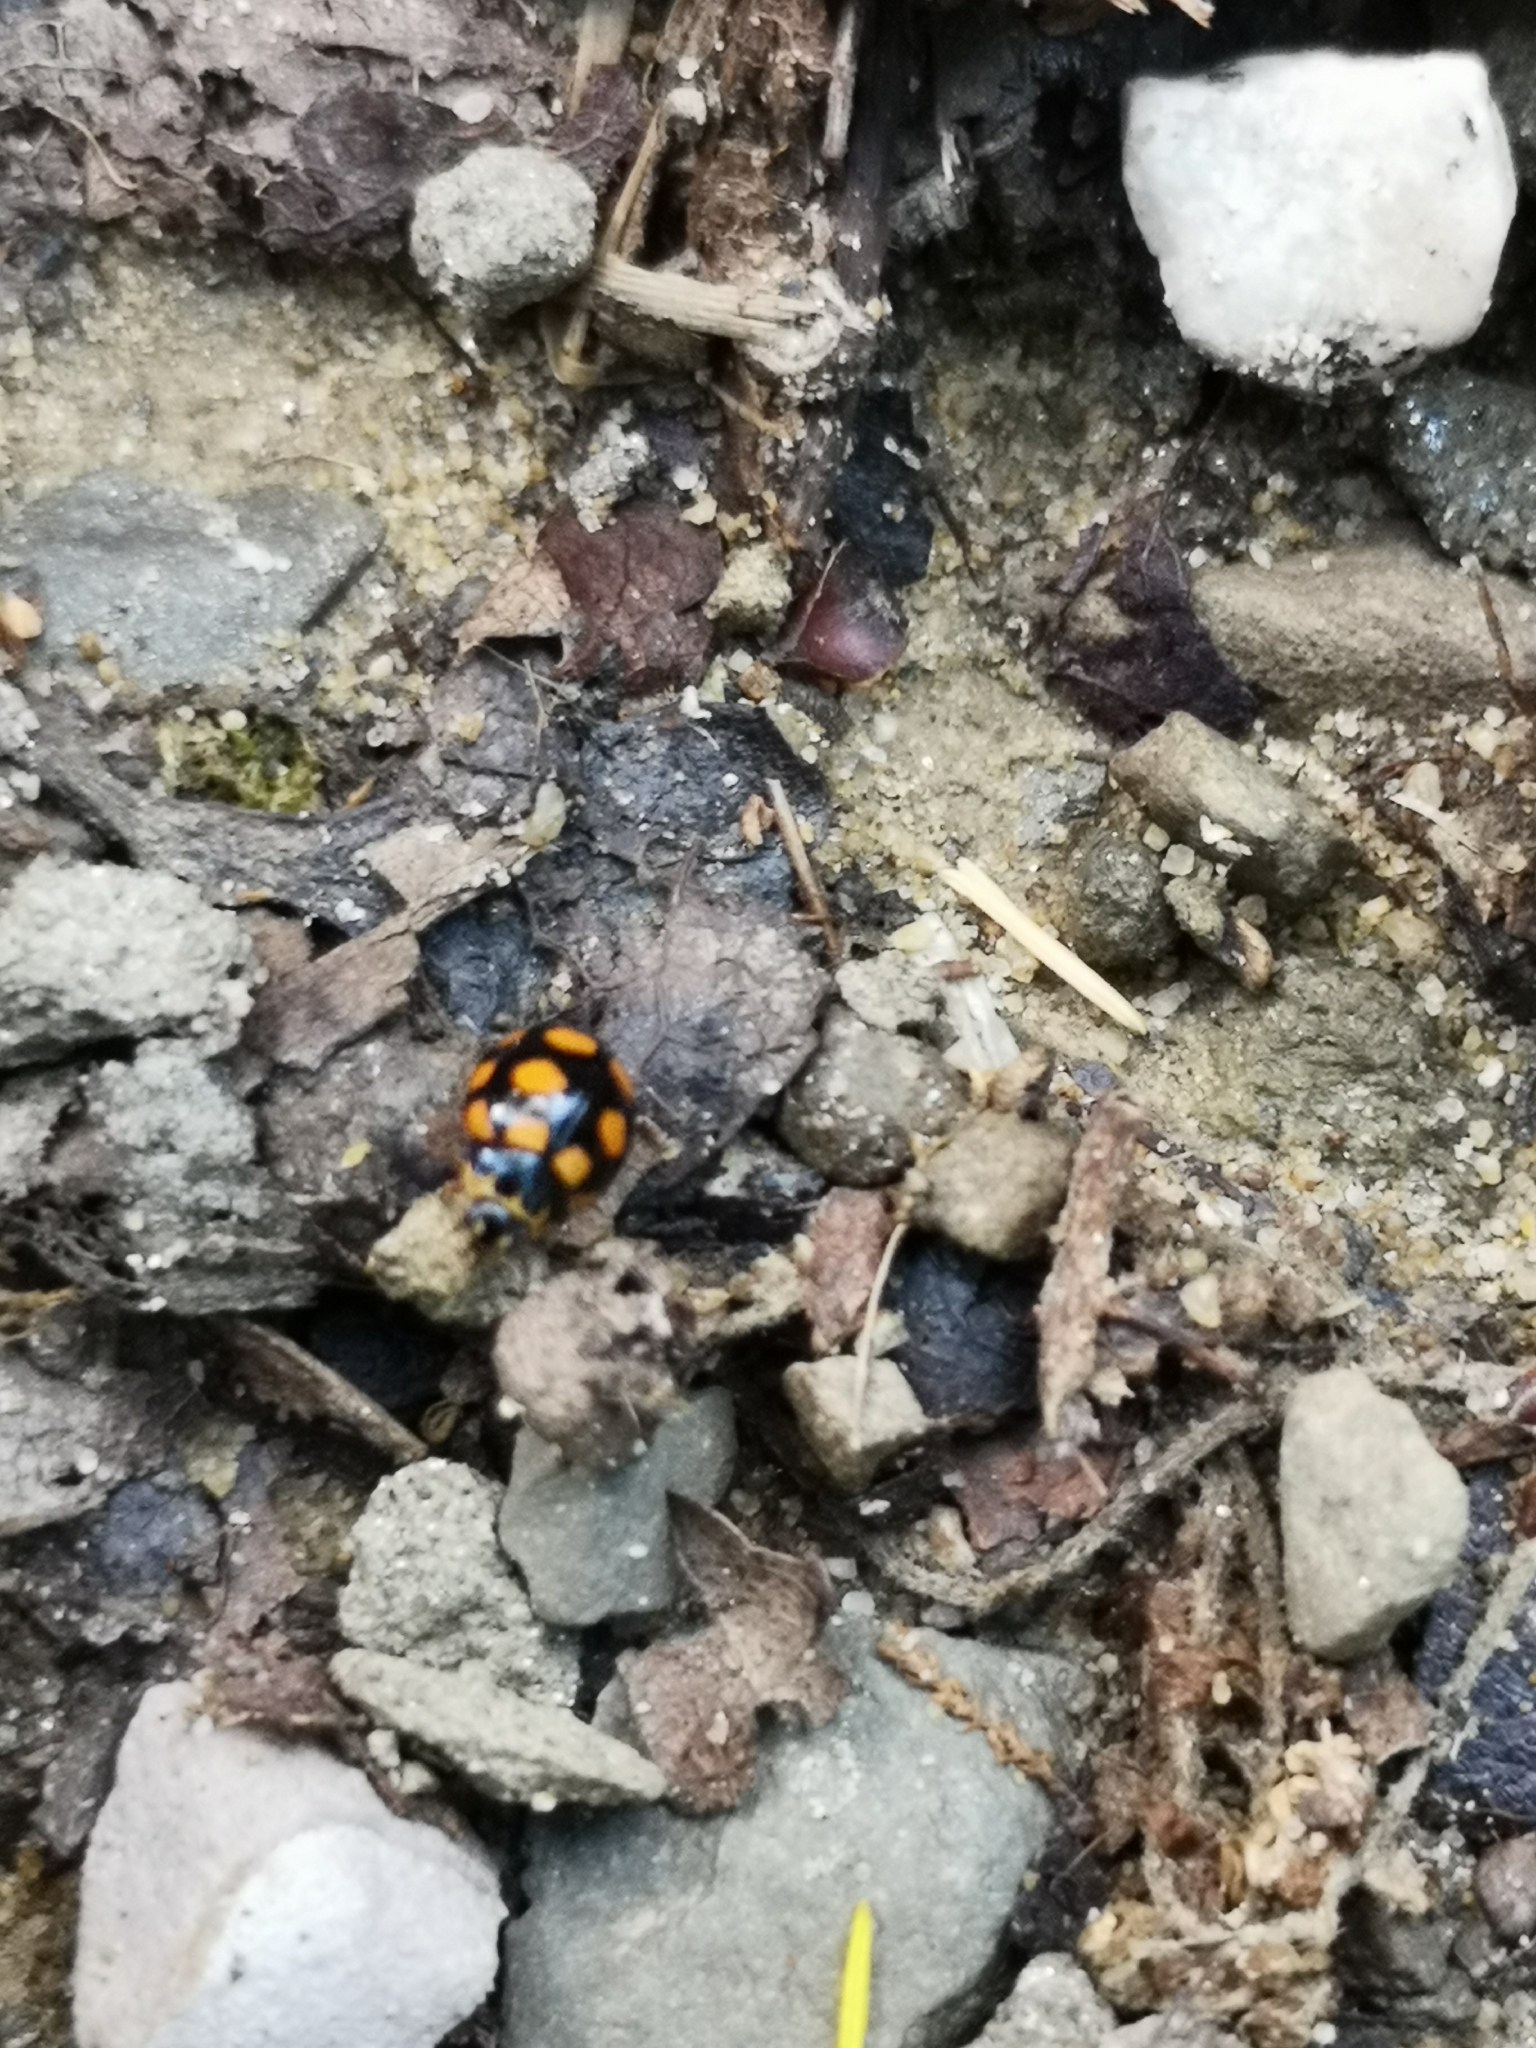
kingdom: Animalia
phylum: Arthropoda
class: Insecta
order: Coleoptera
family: Coccinellidae
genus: Coccinula
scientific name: Coccinula quatuordecimpustulata
